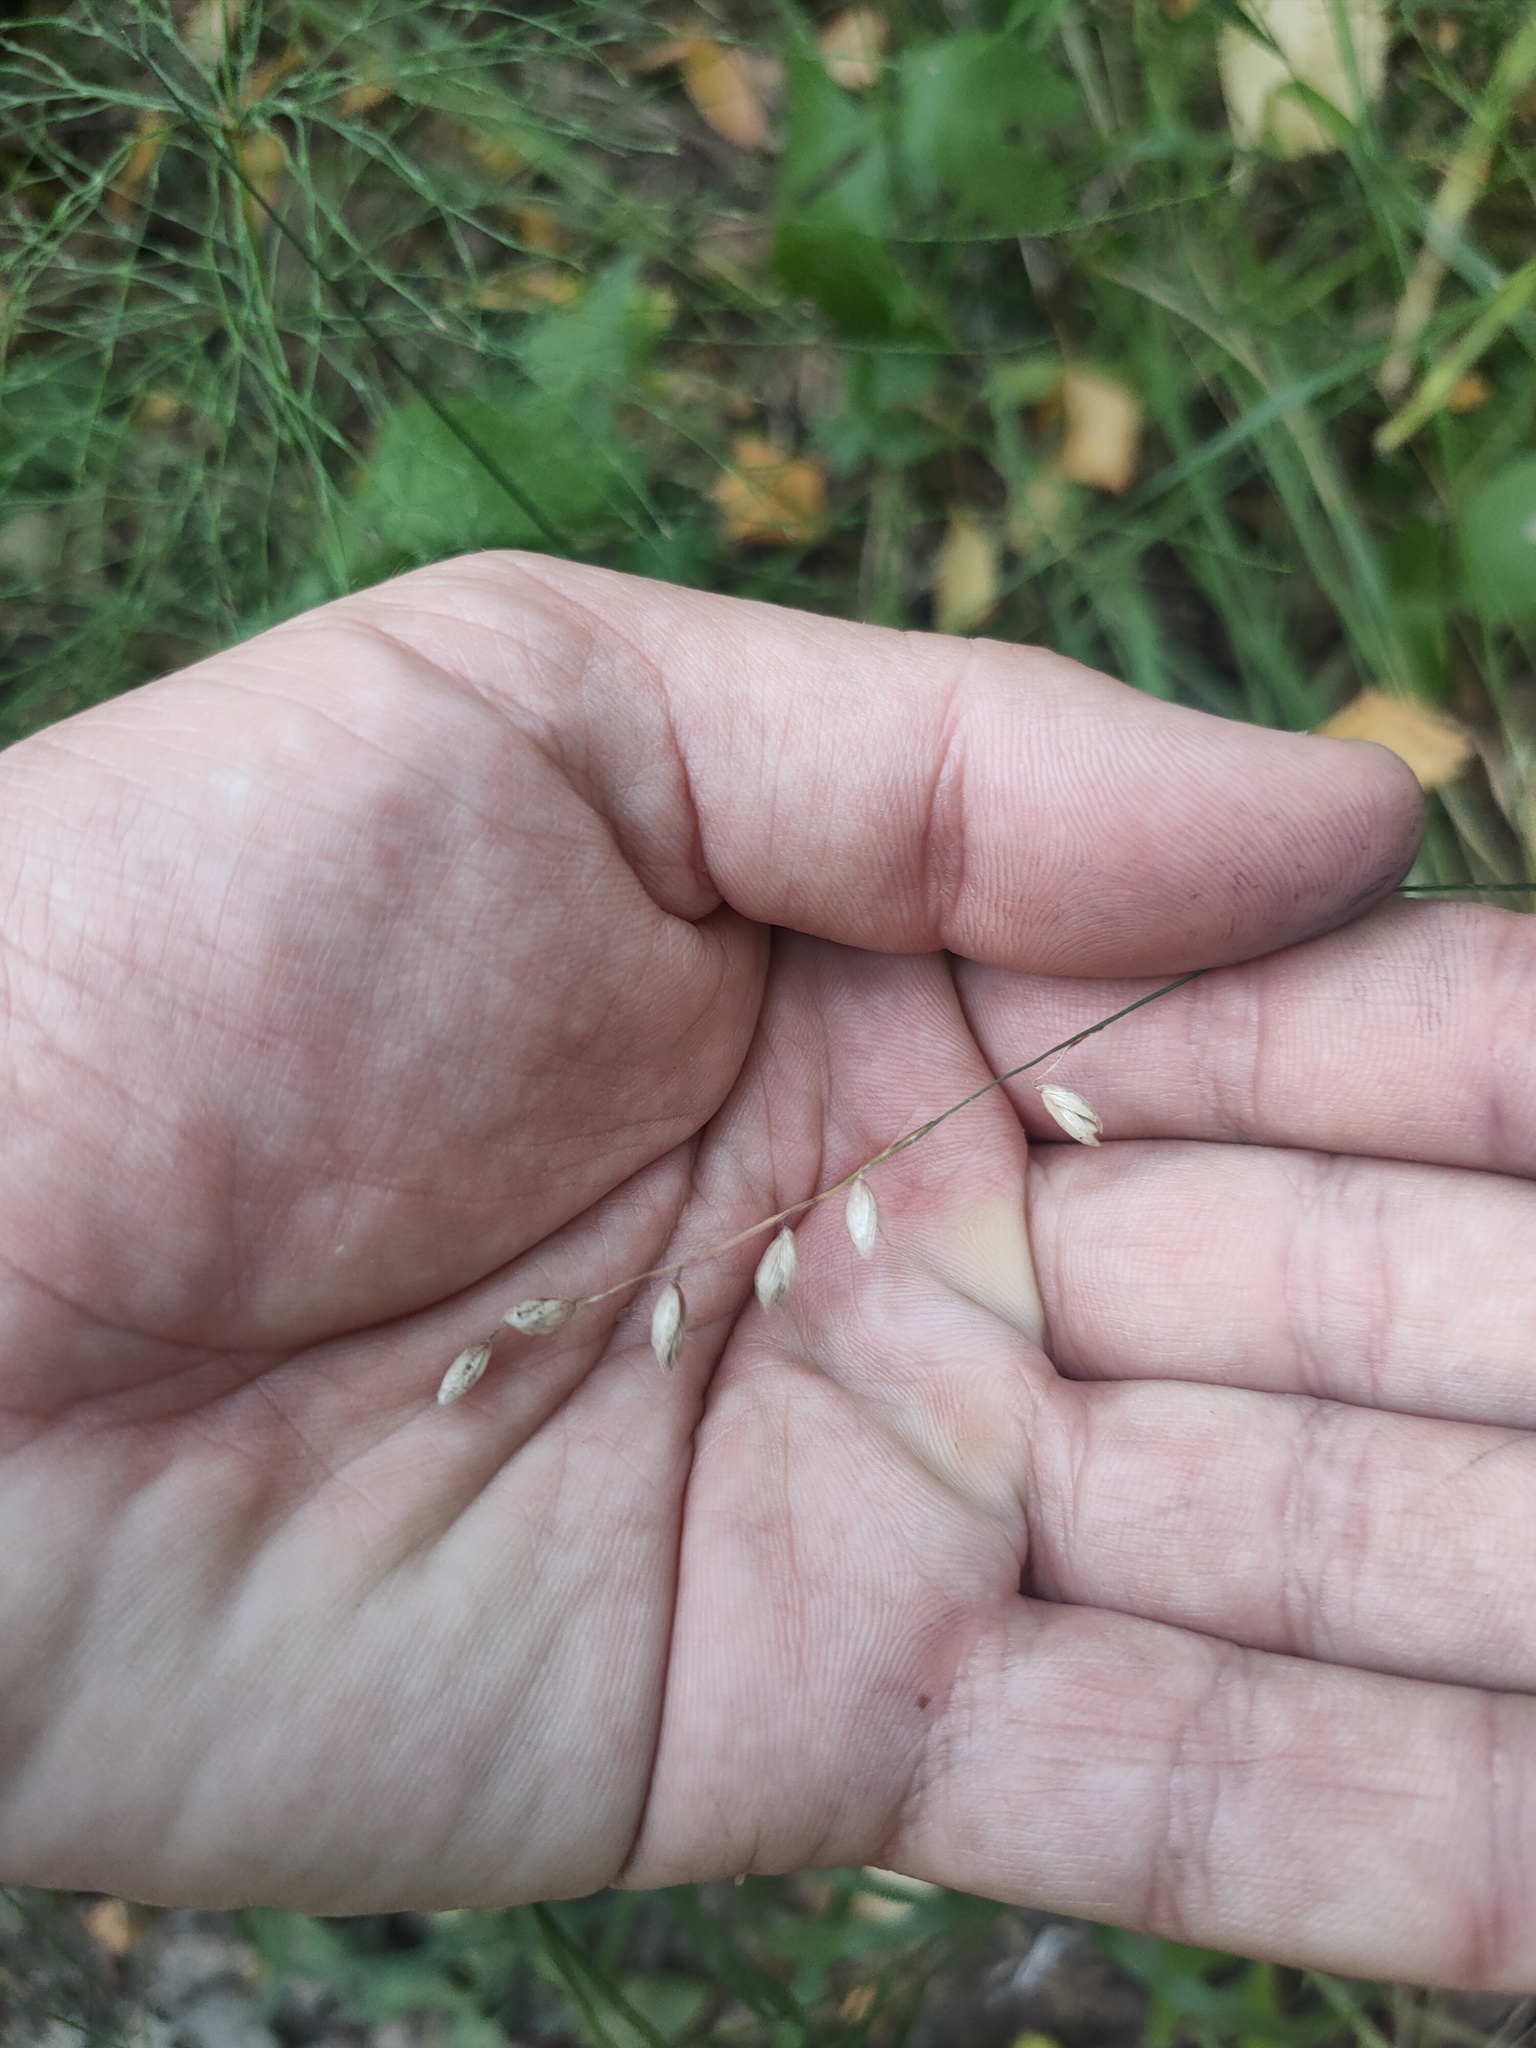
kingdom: Plantae
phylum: Tracheophyta
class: Liliopsida
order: Poales
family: Poaceae
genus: Melica
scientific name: Melica nutans
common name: Mountain melick
